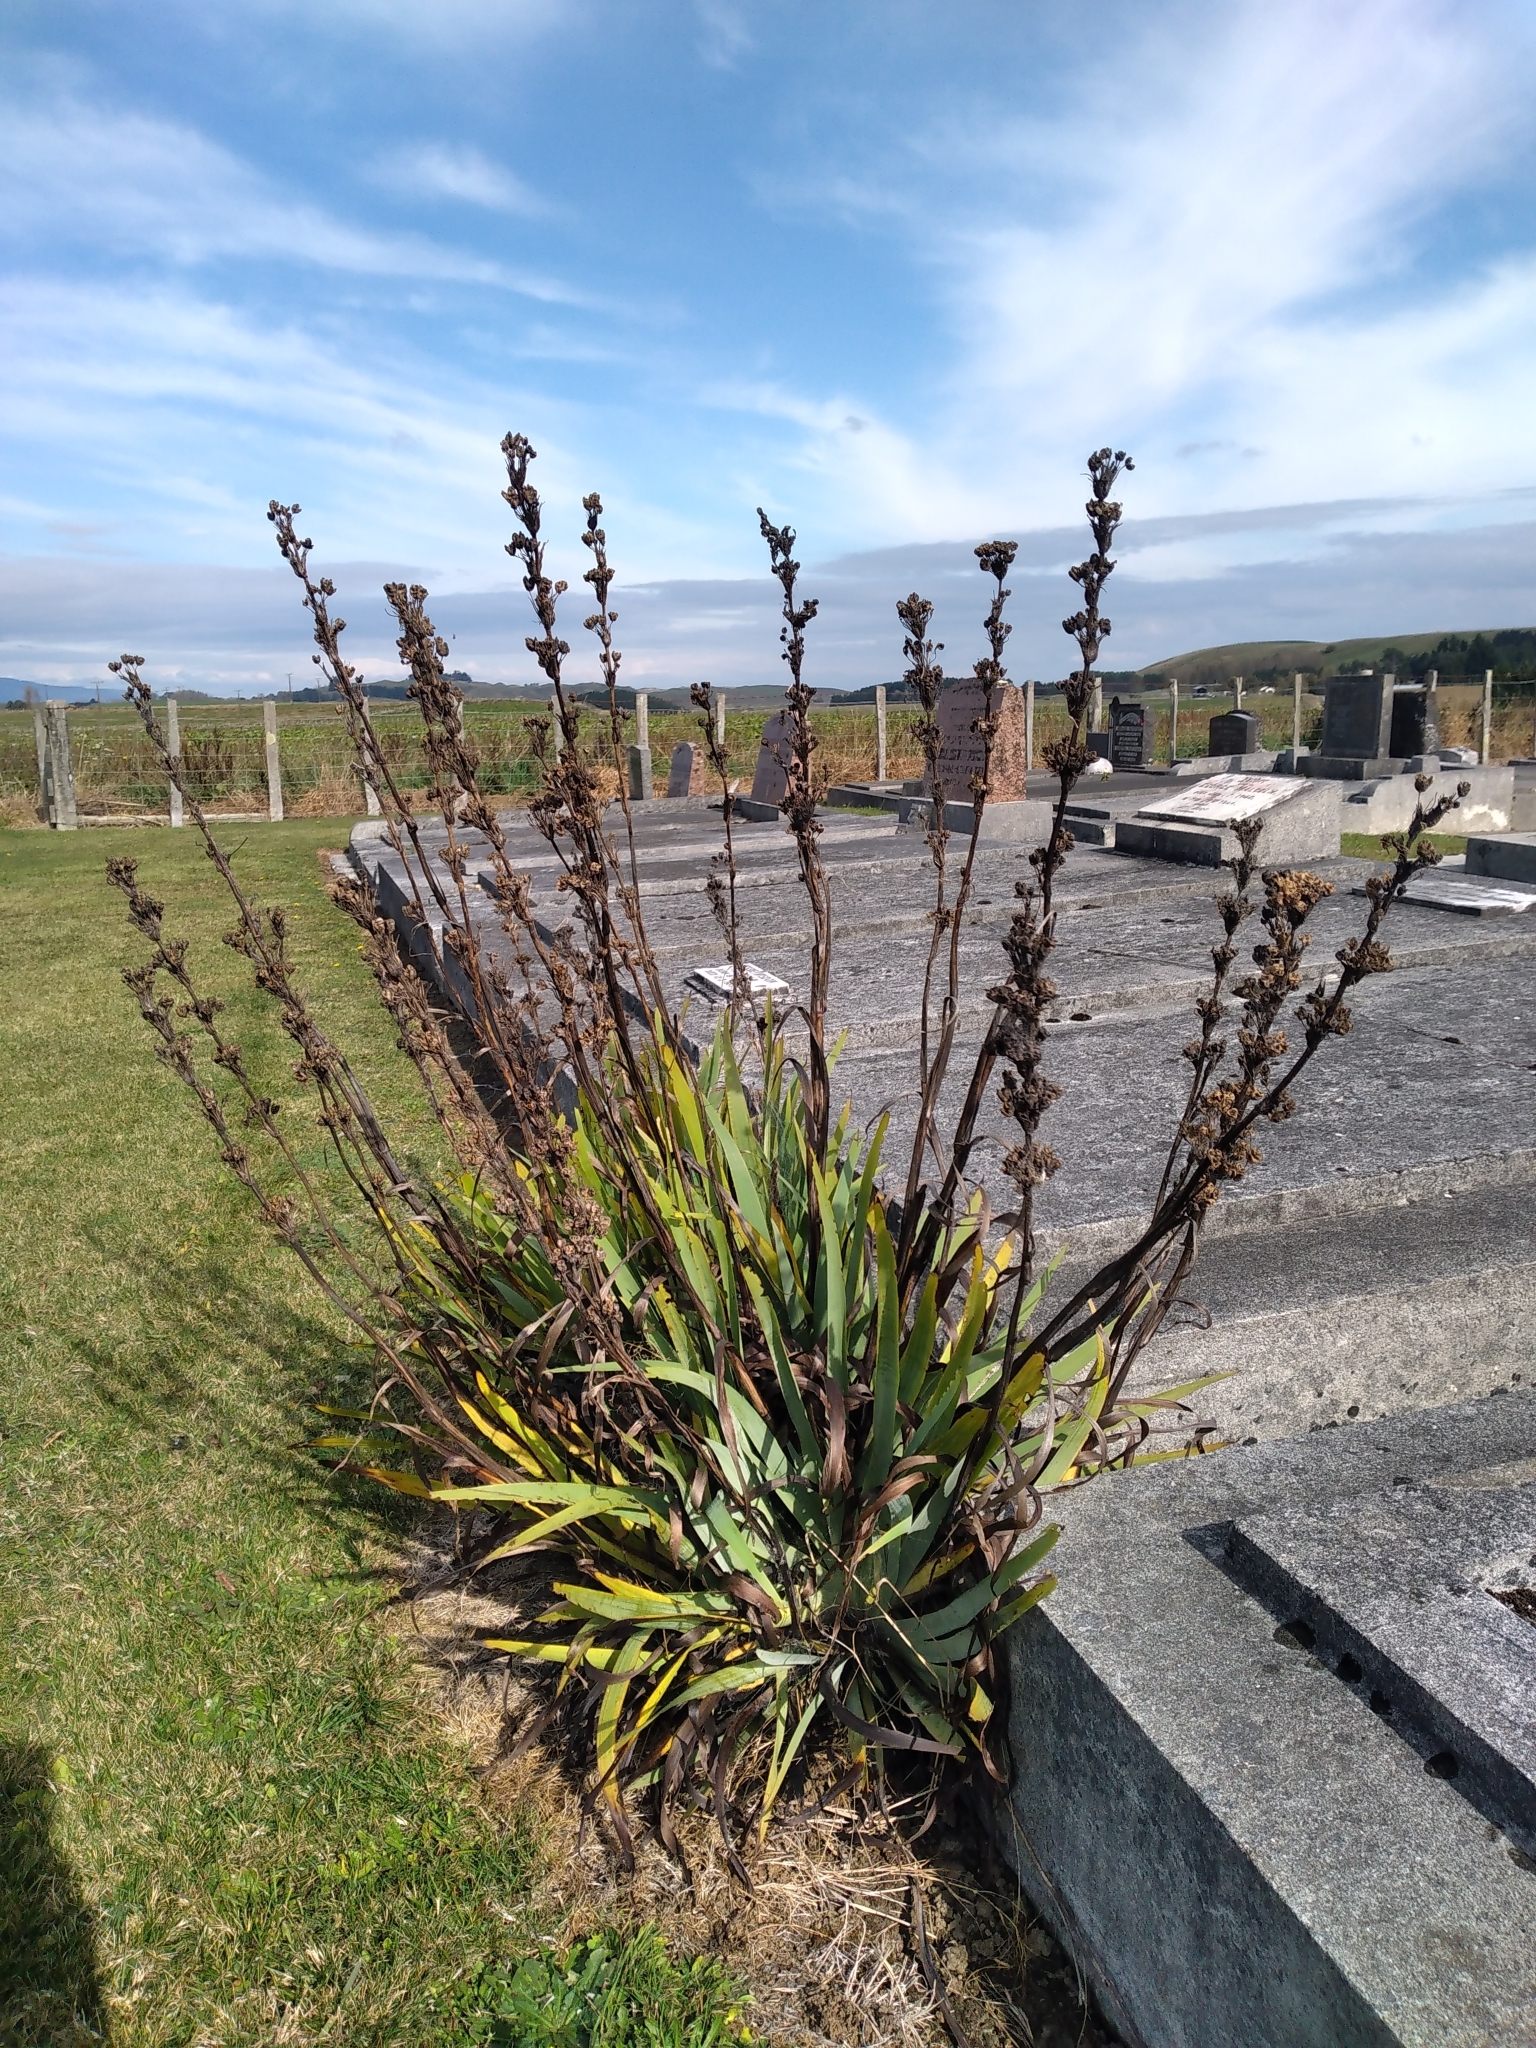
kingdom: Plantae
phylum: Tracheophyta
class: Liliopsida
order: Asparagales
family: Iridaceae
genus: Aristea
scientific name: Aristea ecklonii
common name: Blue corn-lily
